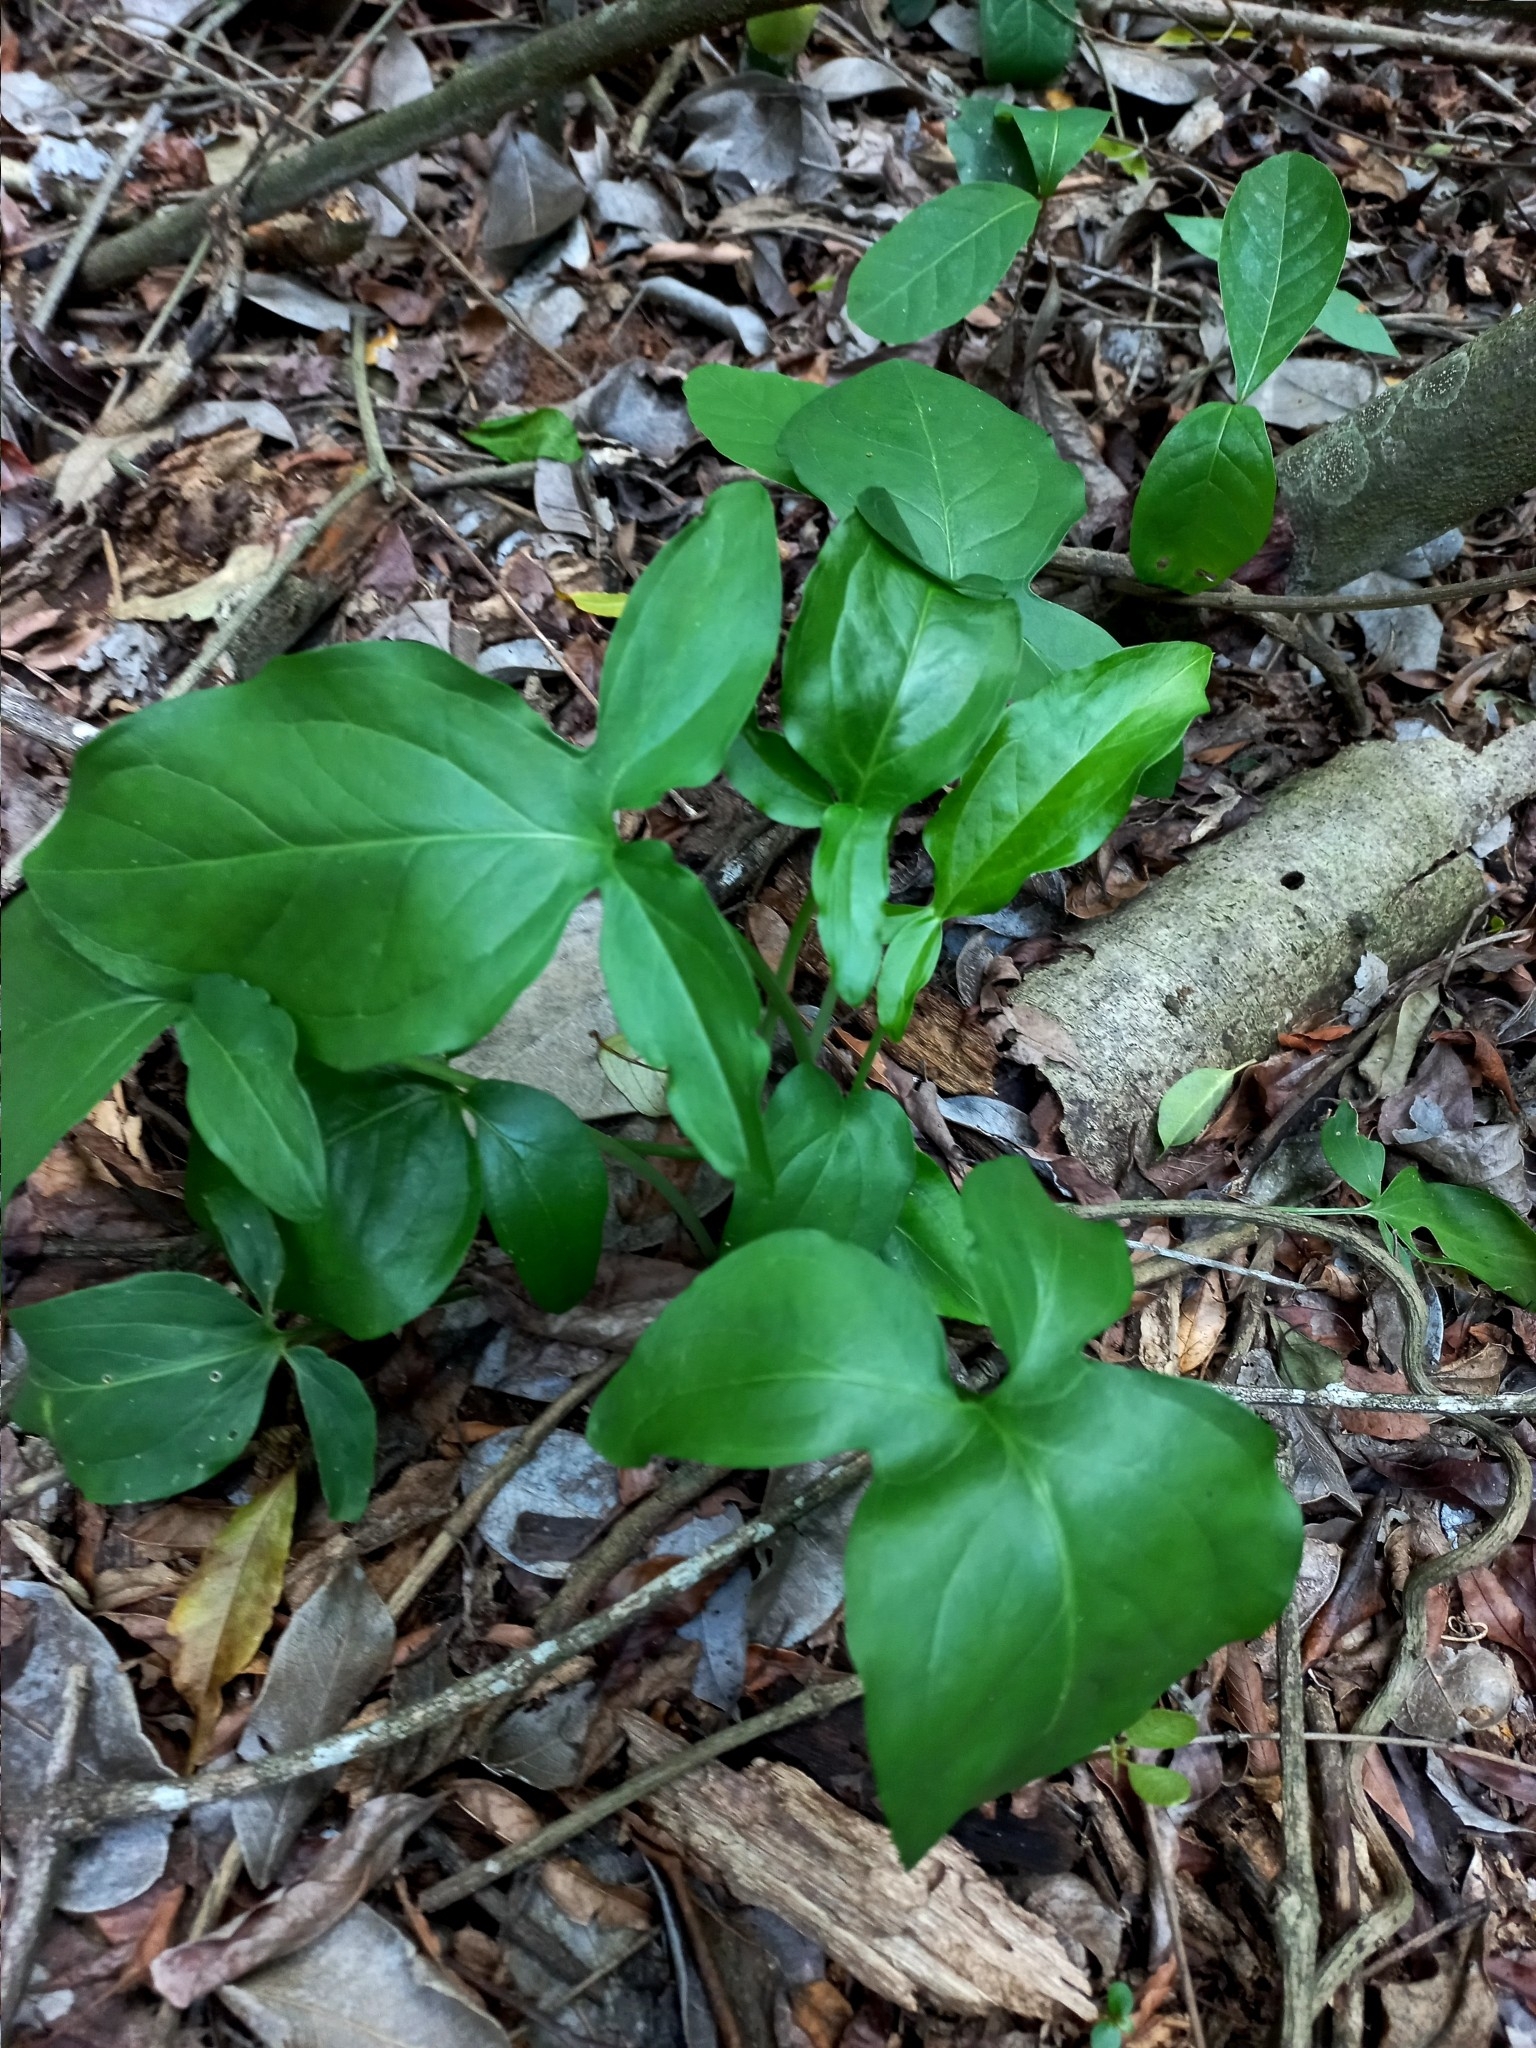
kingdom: Plantae
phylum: Tracheophyta
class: Liliopsida
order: Alismatales
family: Araceae
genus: Spathicarpa
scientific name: Spathicarpa hastifolia
